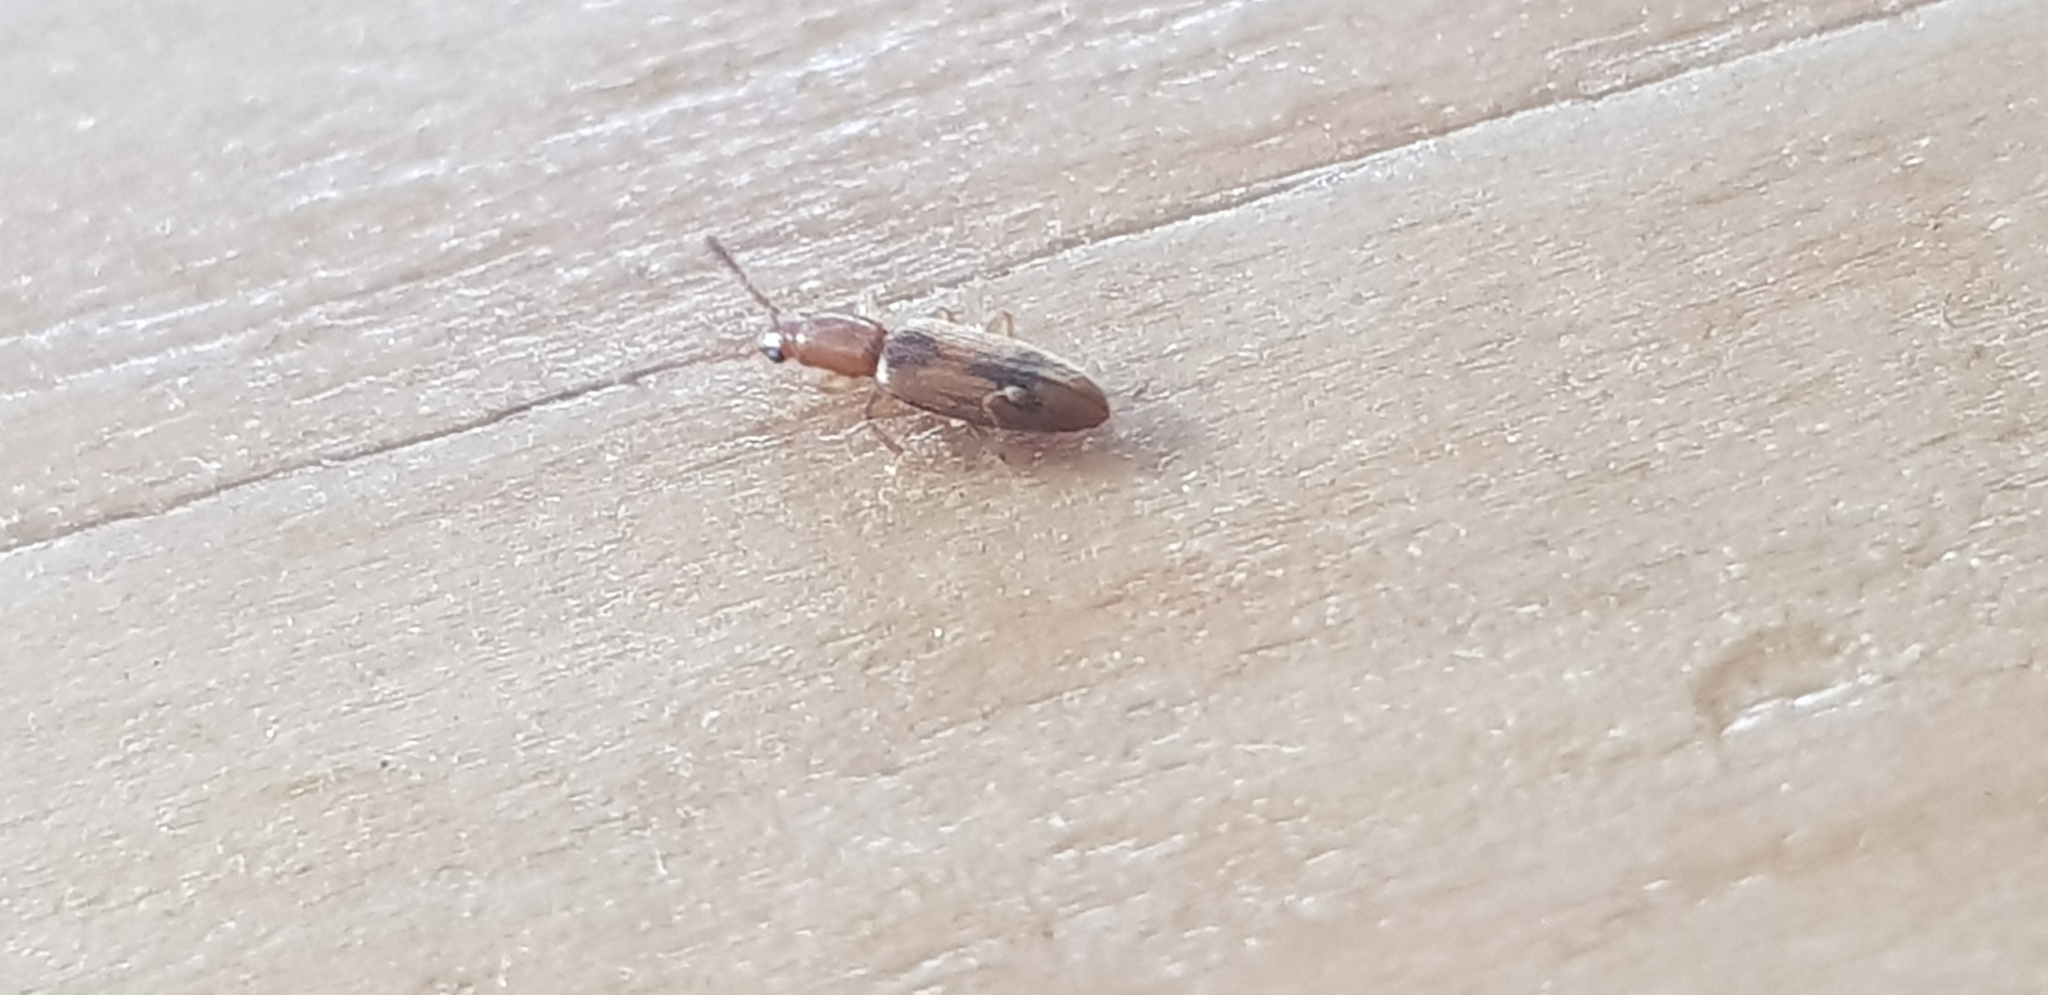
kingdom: Animalia
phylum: Arthropoda
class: Insecta
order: Coleoptera
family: Silvanidae
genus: Cryptamorpha
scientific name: Cryptamorpha desjardinsi
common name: Cryptamorpha
